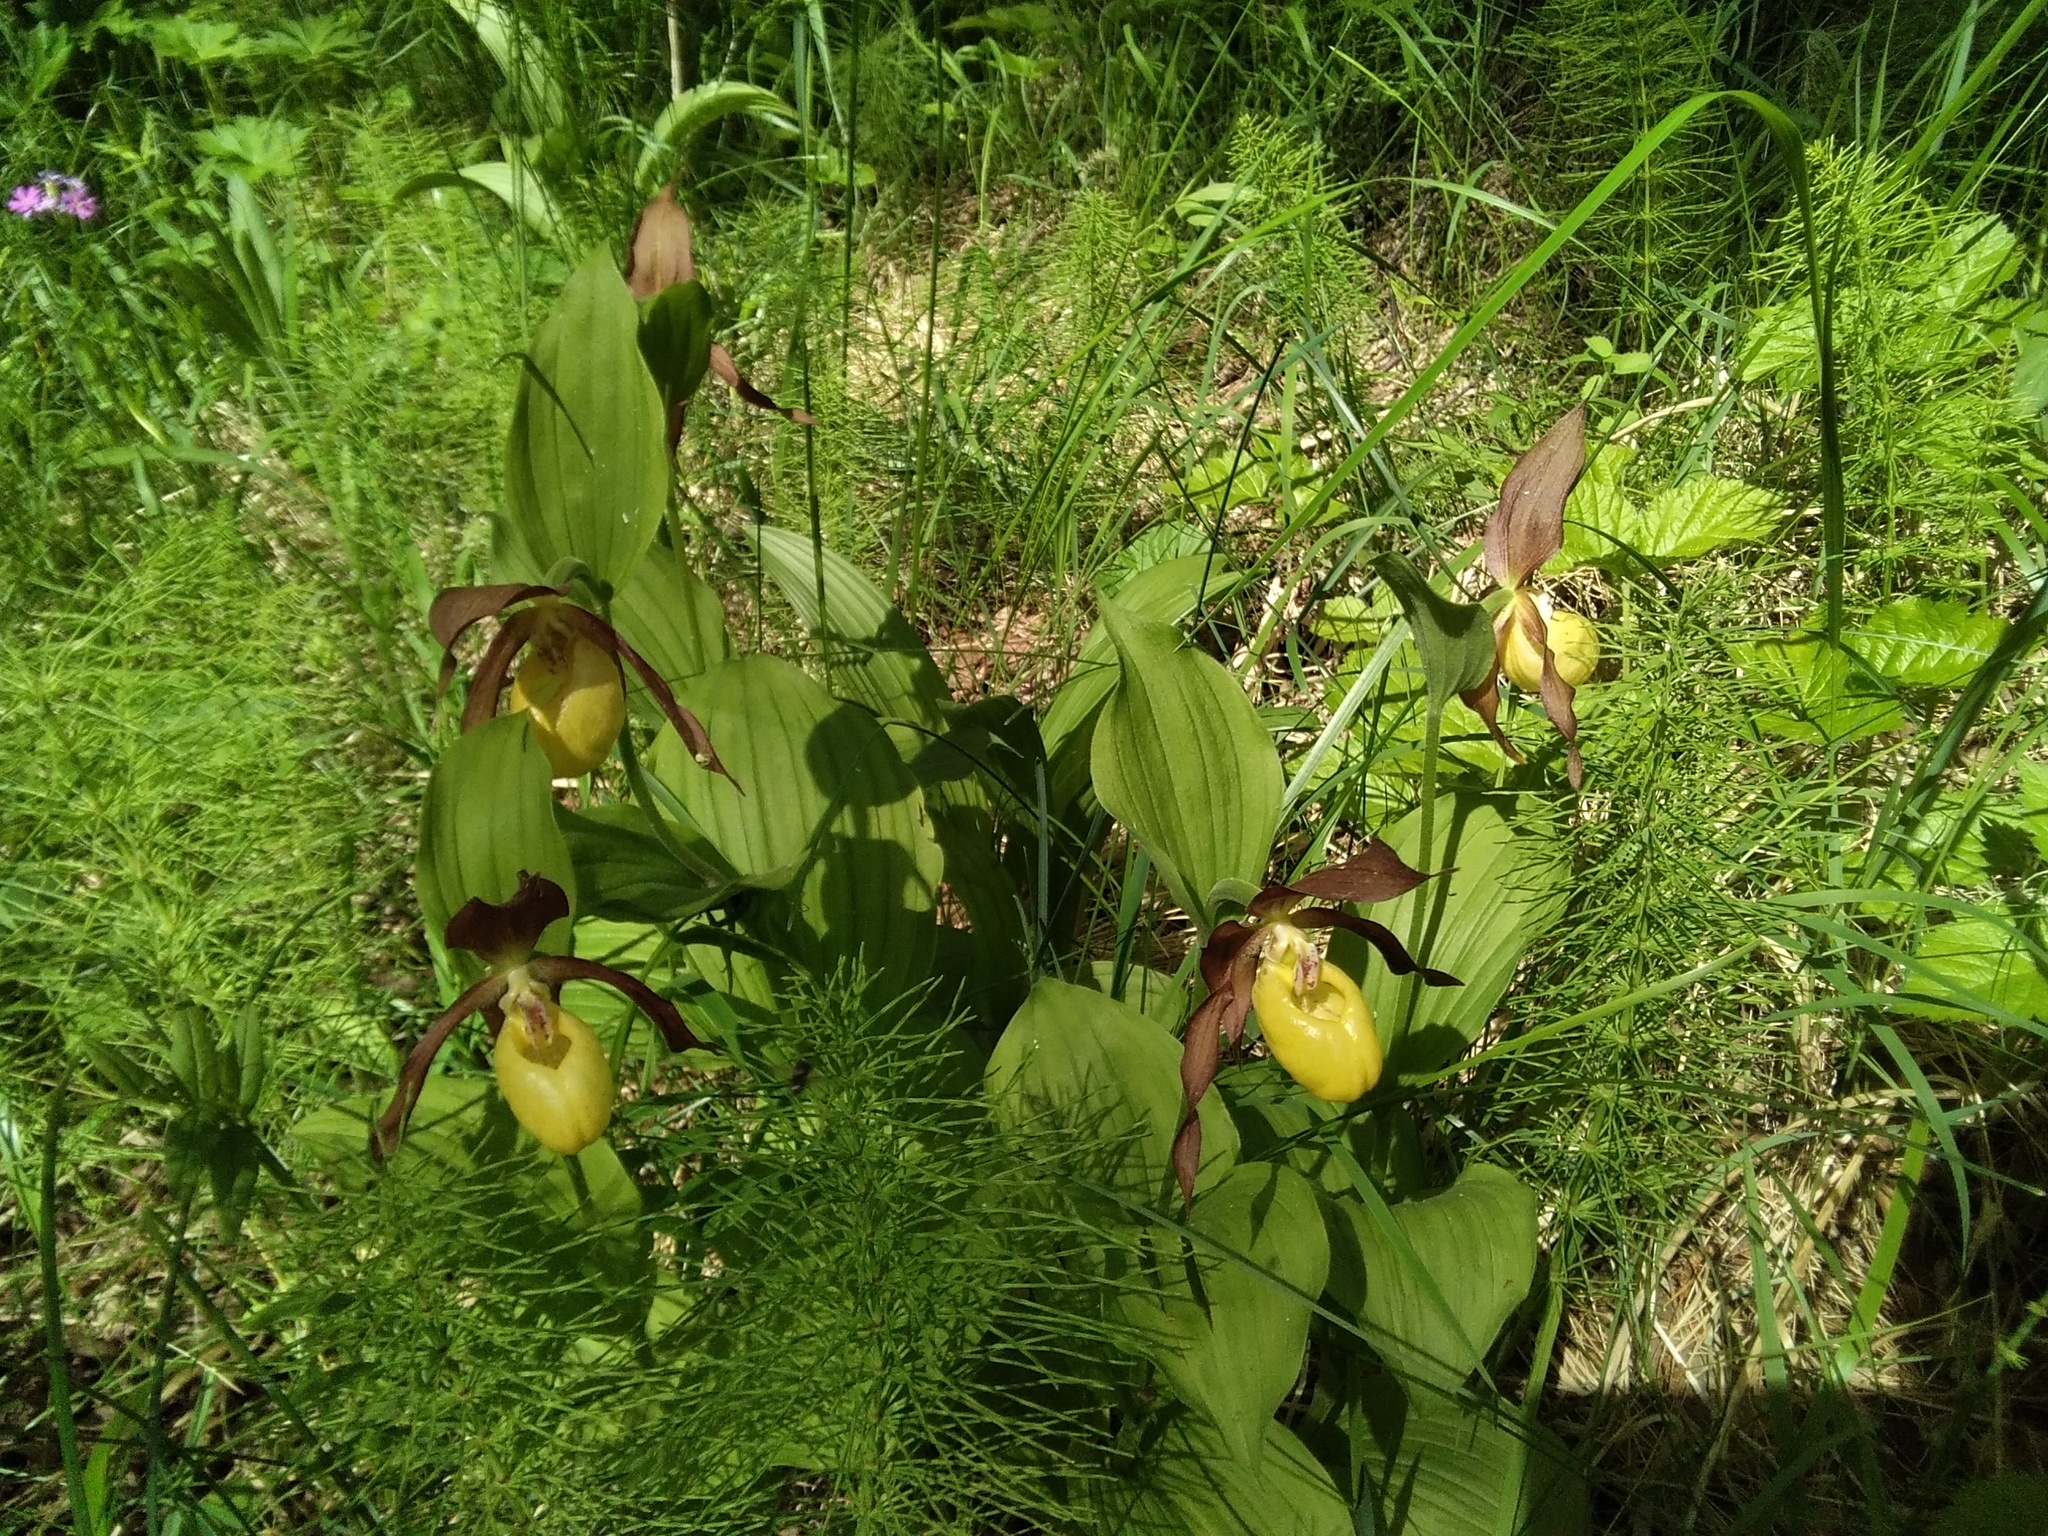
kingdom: Plantae
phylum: Tracheophyta
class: Liliopsida
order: Asparagales
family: Orchidaceae
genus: Cypripedium
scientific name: Cypripedium calceolus
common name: Lady's-slipper
